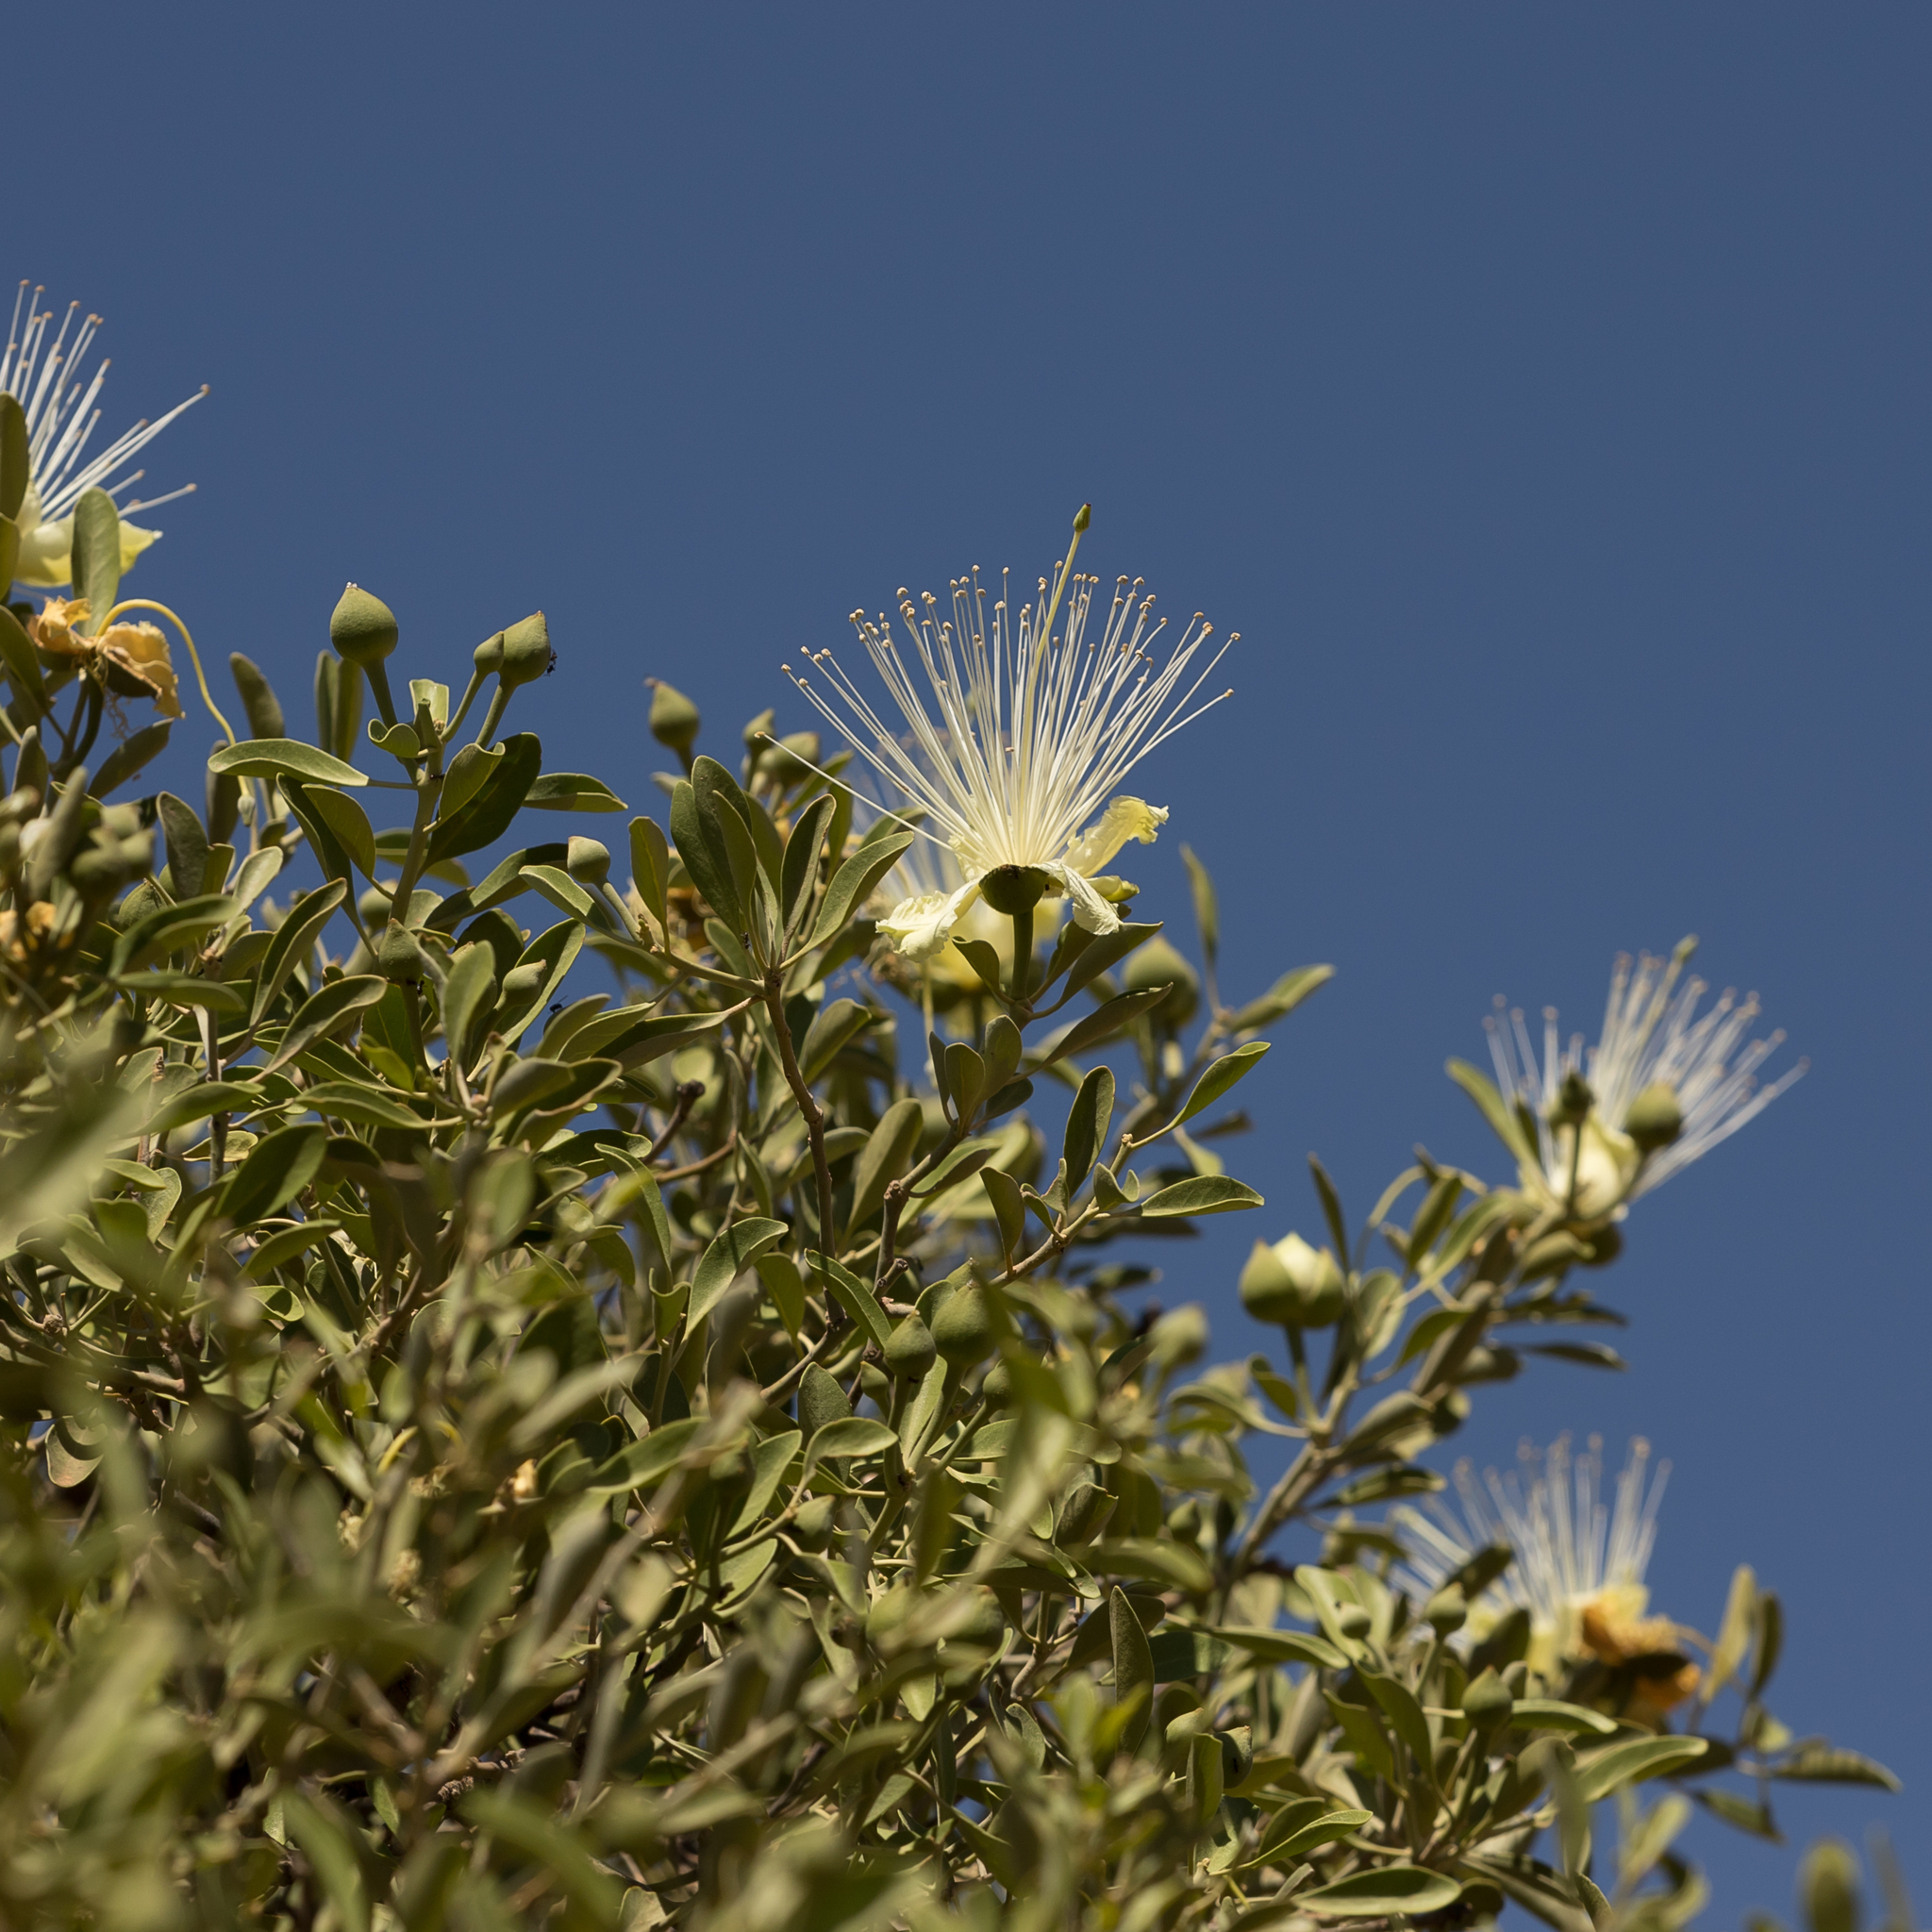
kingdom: Plantae
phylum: Tracheophyta
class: Magnoliopsida
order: Brassicales
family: Capparaceae
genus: Capparis
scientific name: Capparis mitchellii
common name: Desert caper
